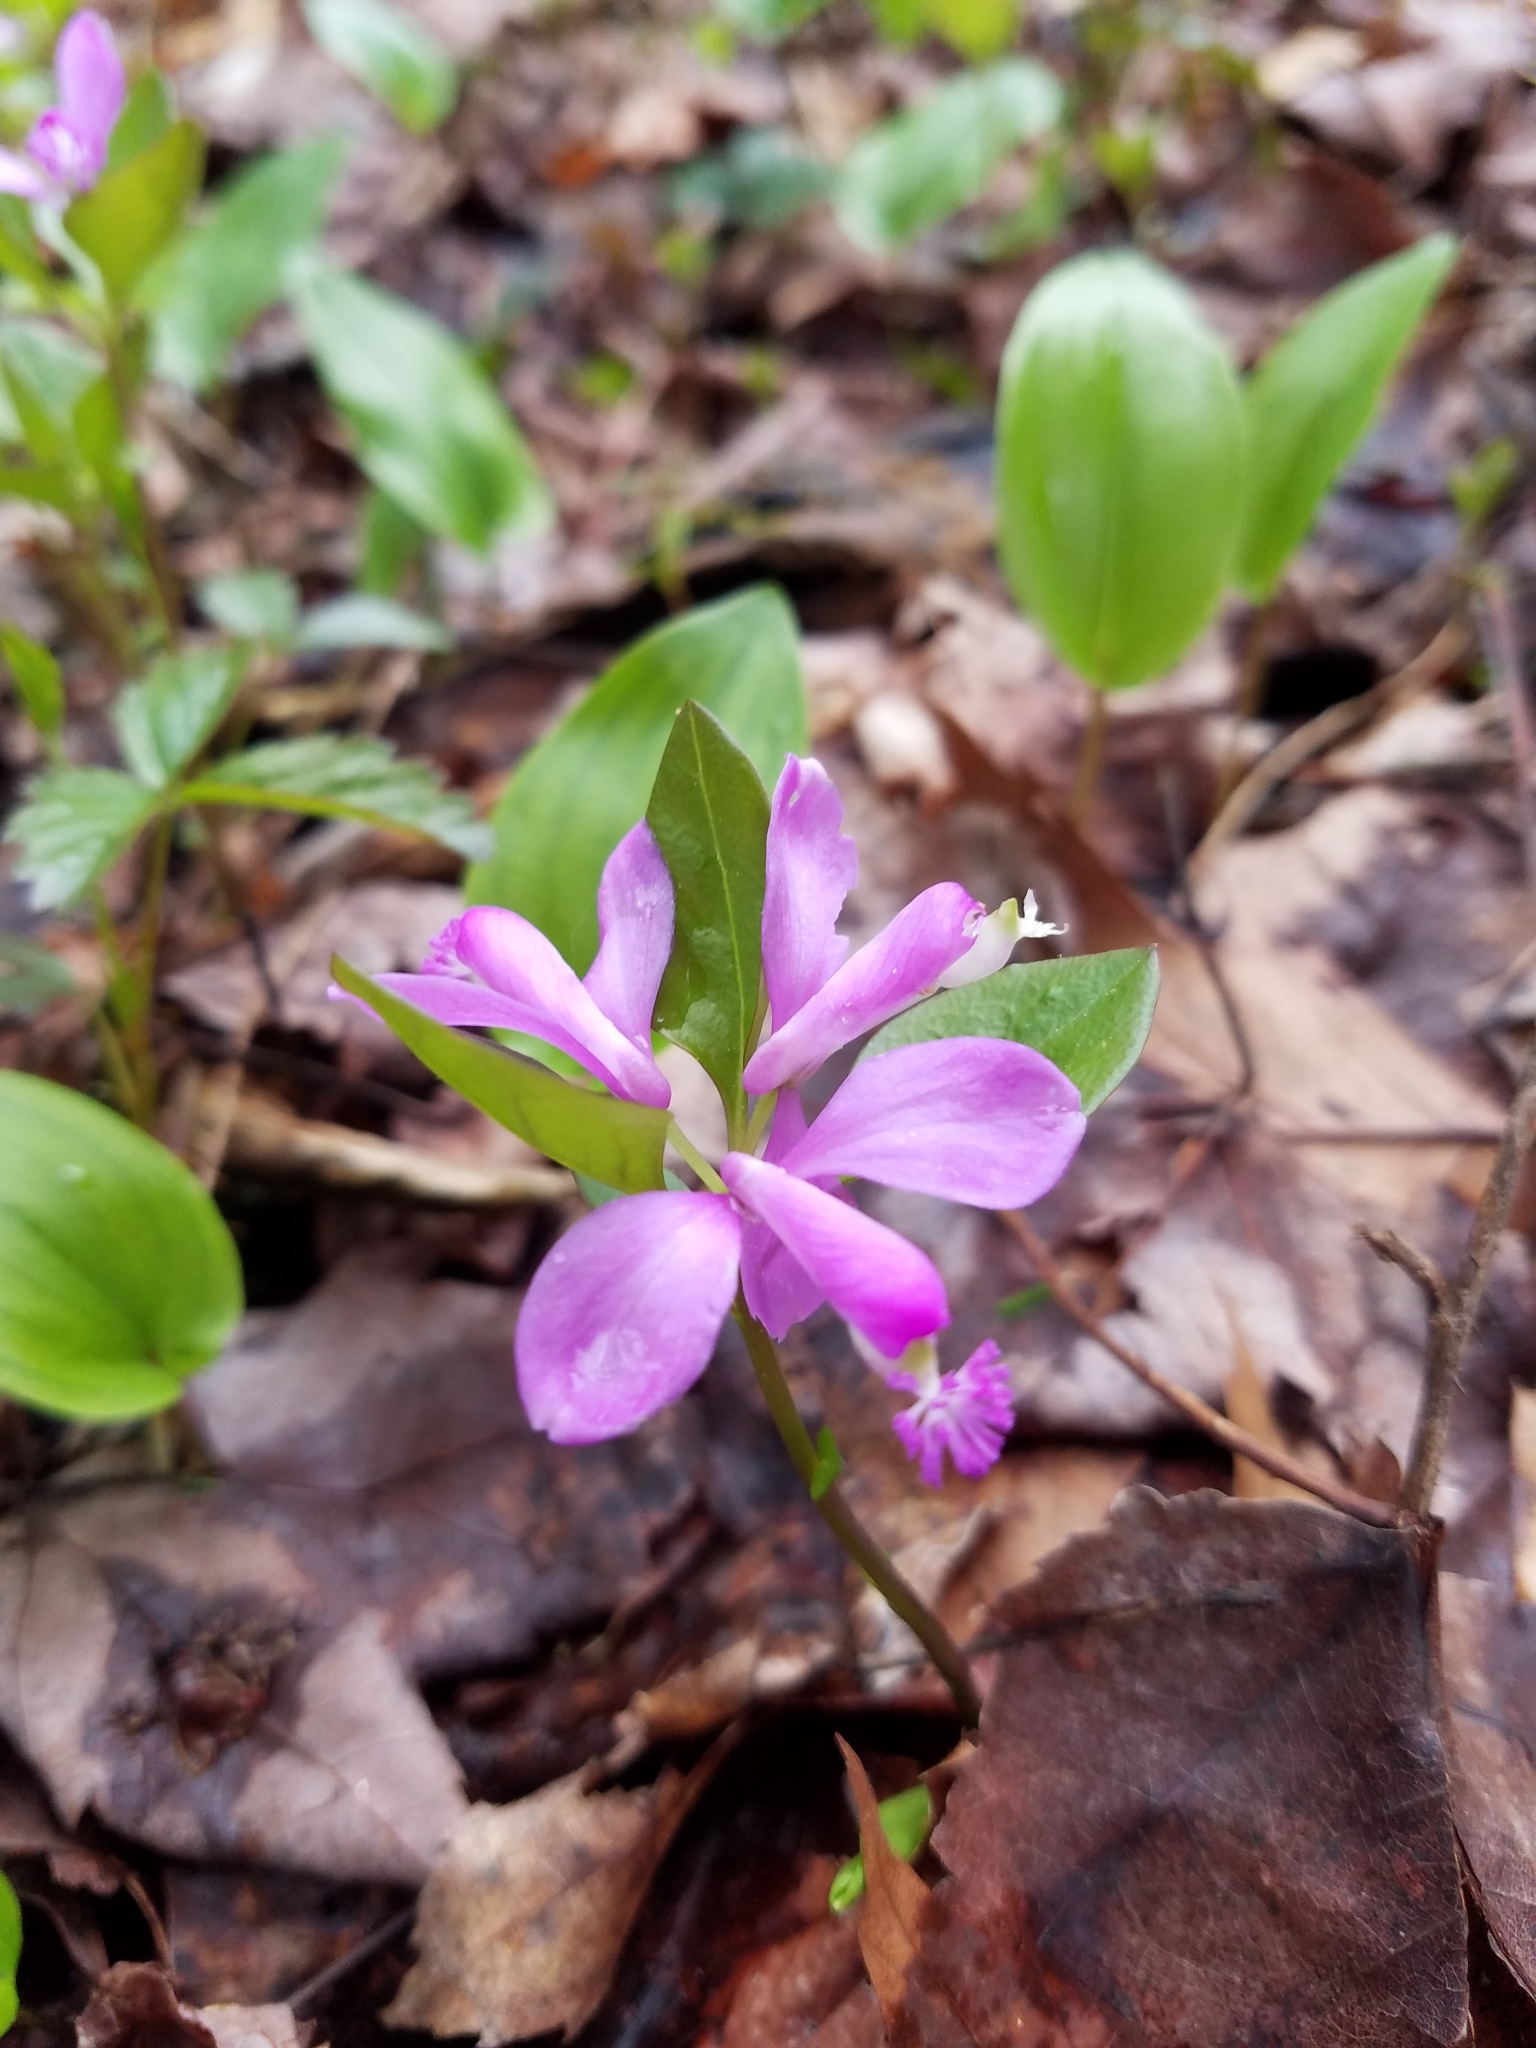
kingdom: Plantae
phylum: Tracheophyta
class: Magnoliopsida
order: Fabales
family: Polygalaceae
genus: Polygaloides
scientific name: Polygaloides paucifolia
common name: Bird-on-the-wing
